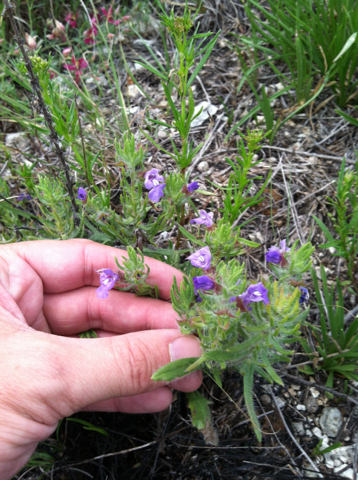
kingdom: Plantae
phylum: Tracheophyta
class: Magnoliopsida
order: Lamiales
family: Lamiaceae
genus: Salvia
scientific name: Salvia texana
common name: Texas sage
